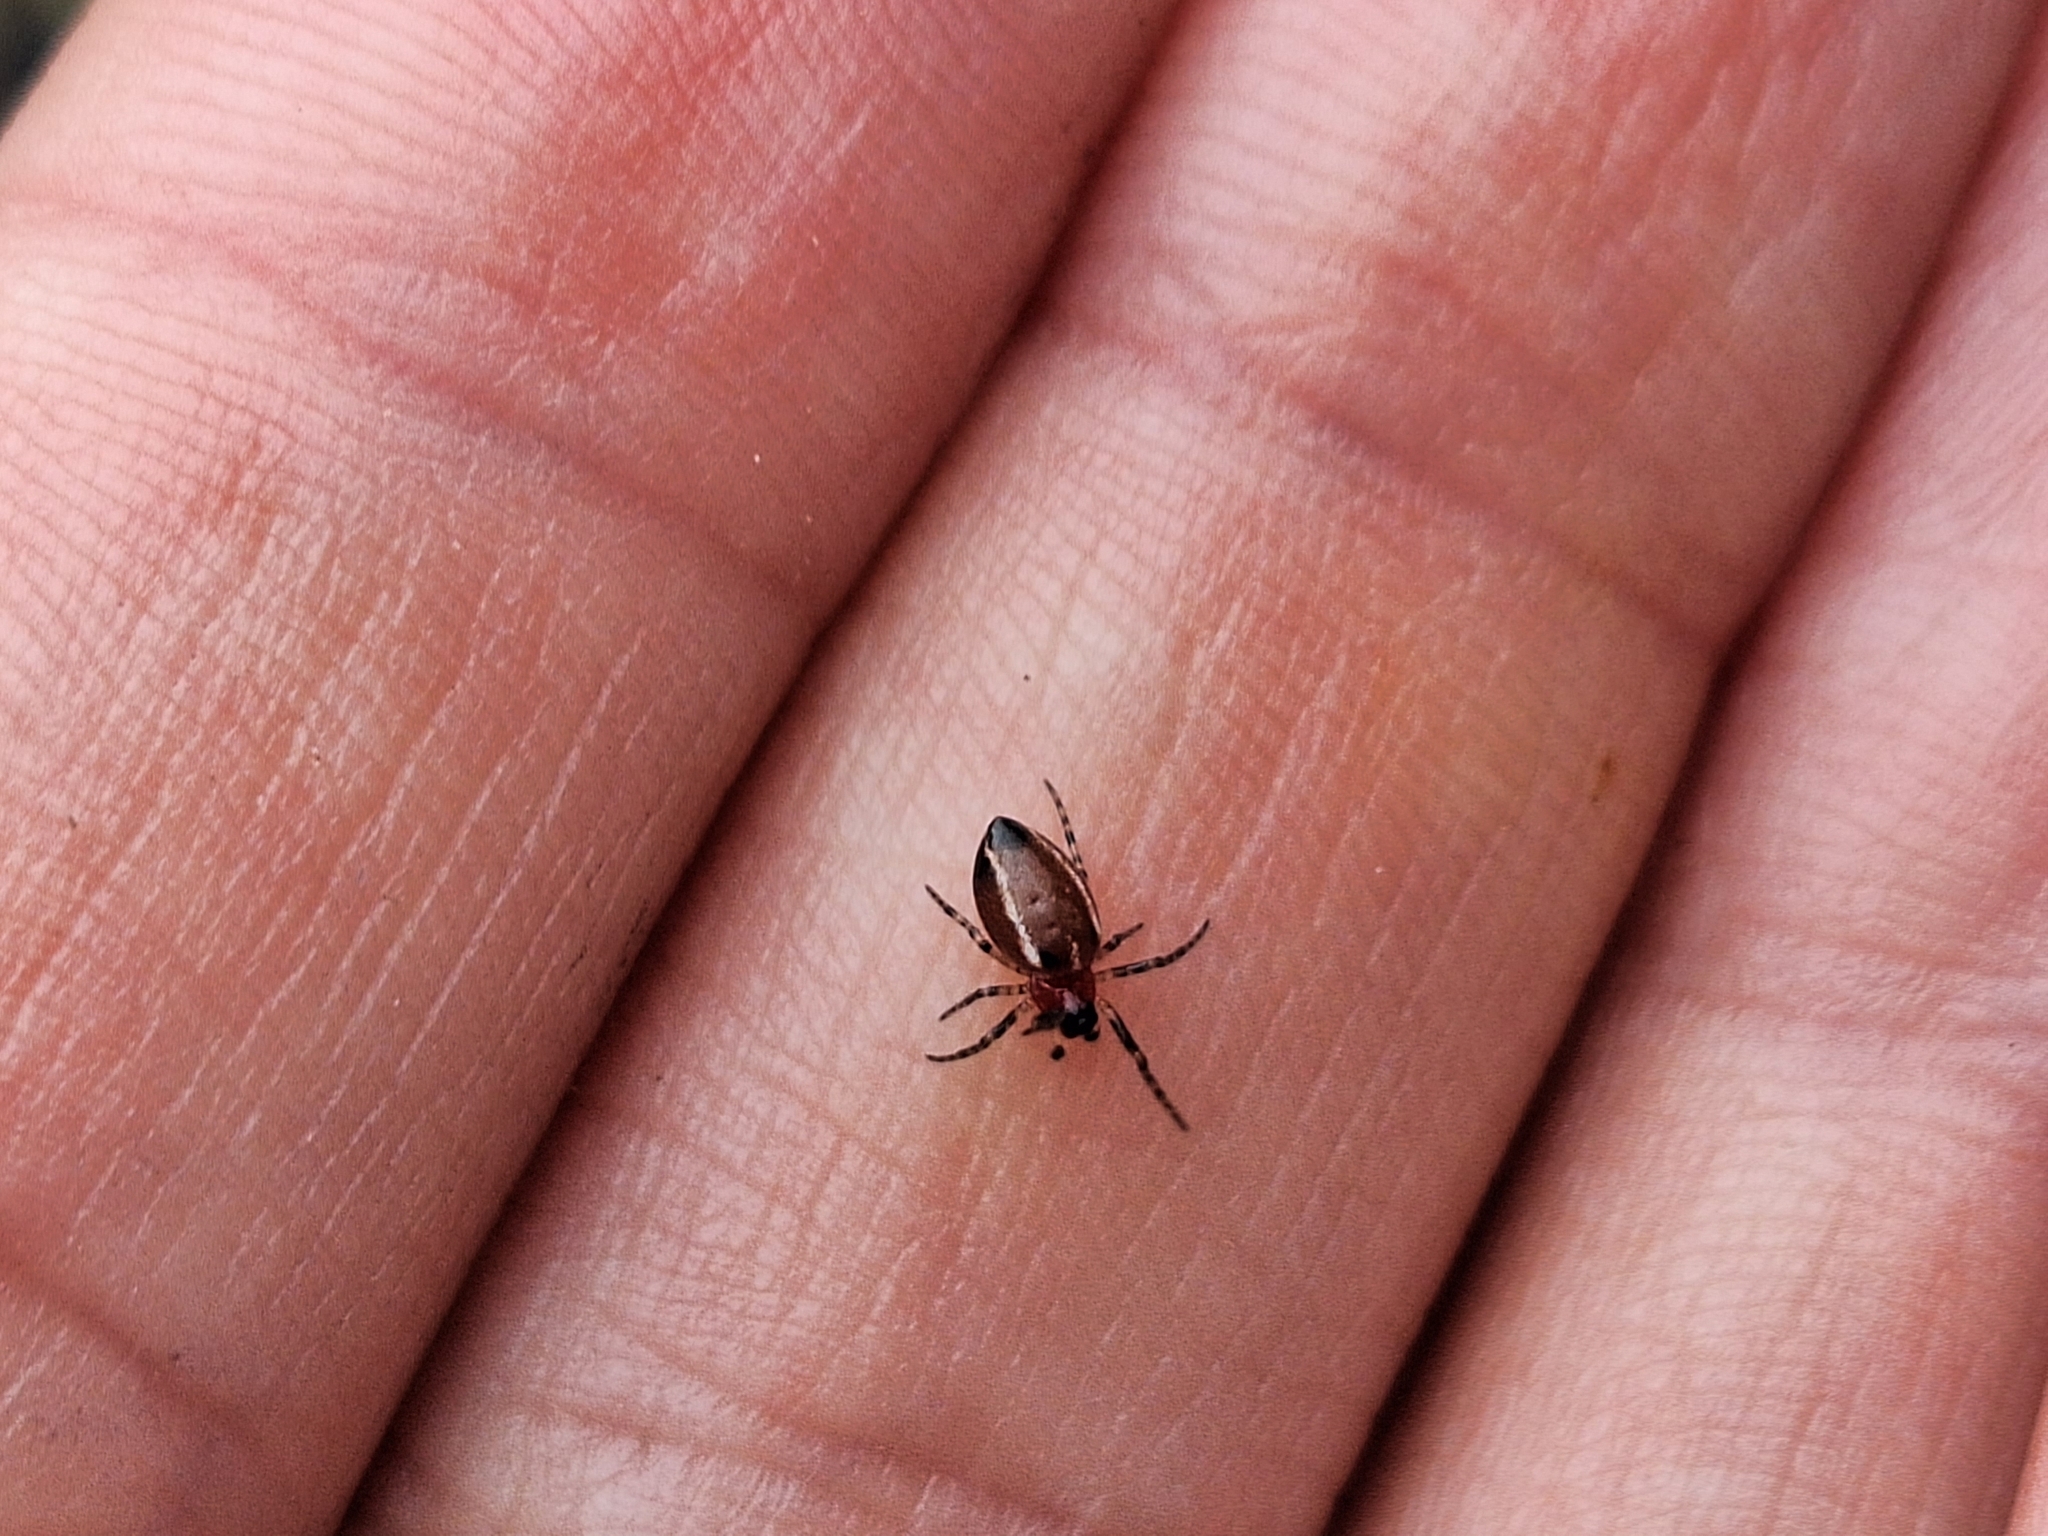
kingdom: Animalia
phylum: Arthropoda
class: Arachnida
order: Araneae
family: Araneidae
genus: Alpaida
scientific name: Alpaida leucogramma
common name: Orb weavers
